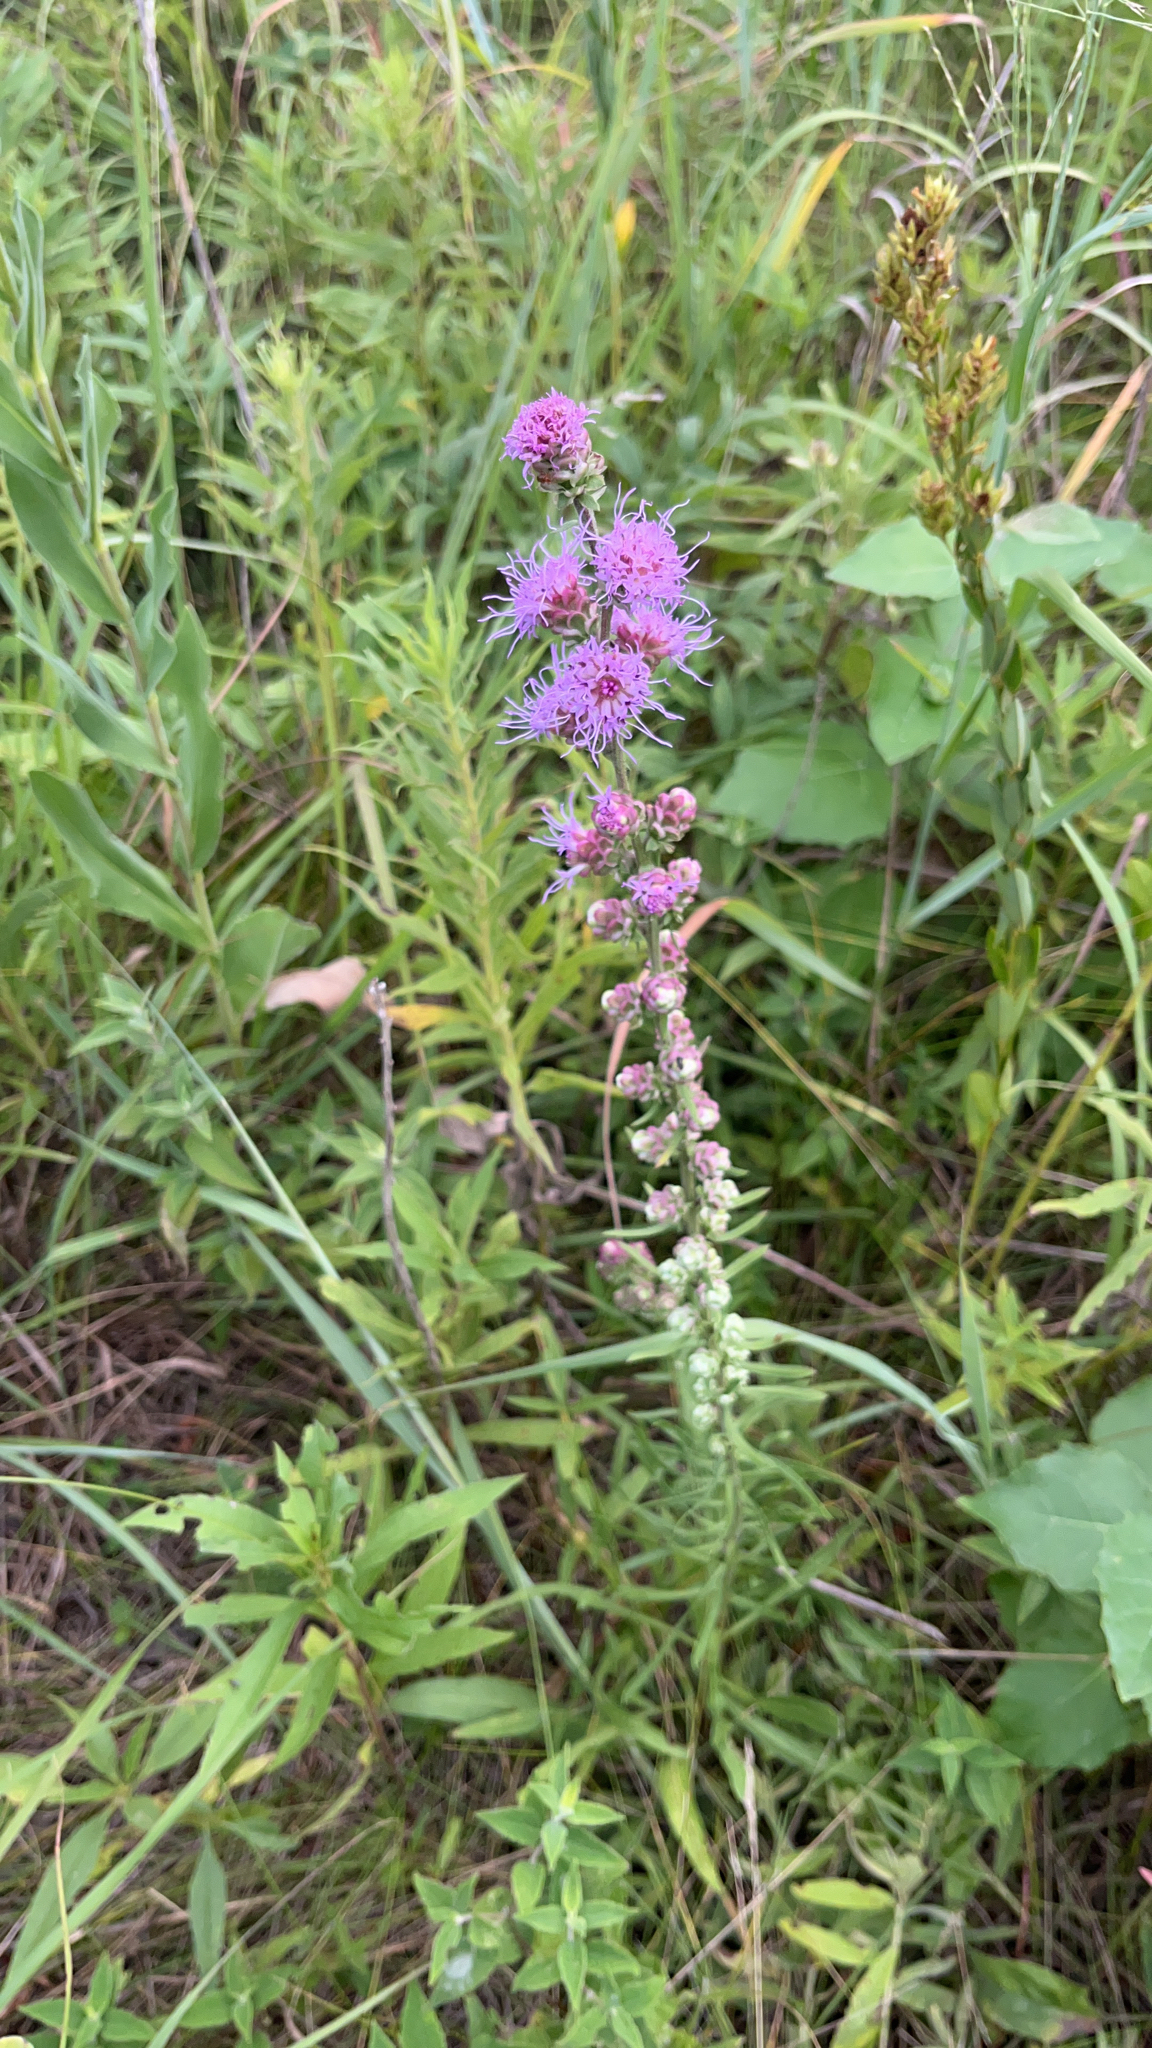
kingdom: Plantae
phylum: Tracheophyta
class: Magnoliopsida
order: Asterales
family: Asteraceae
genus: Liatris
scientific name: Liatris aspera
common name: Lacerate blazing-star
